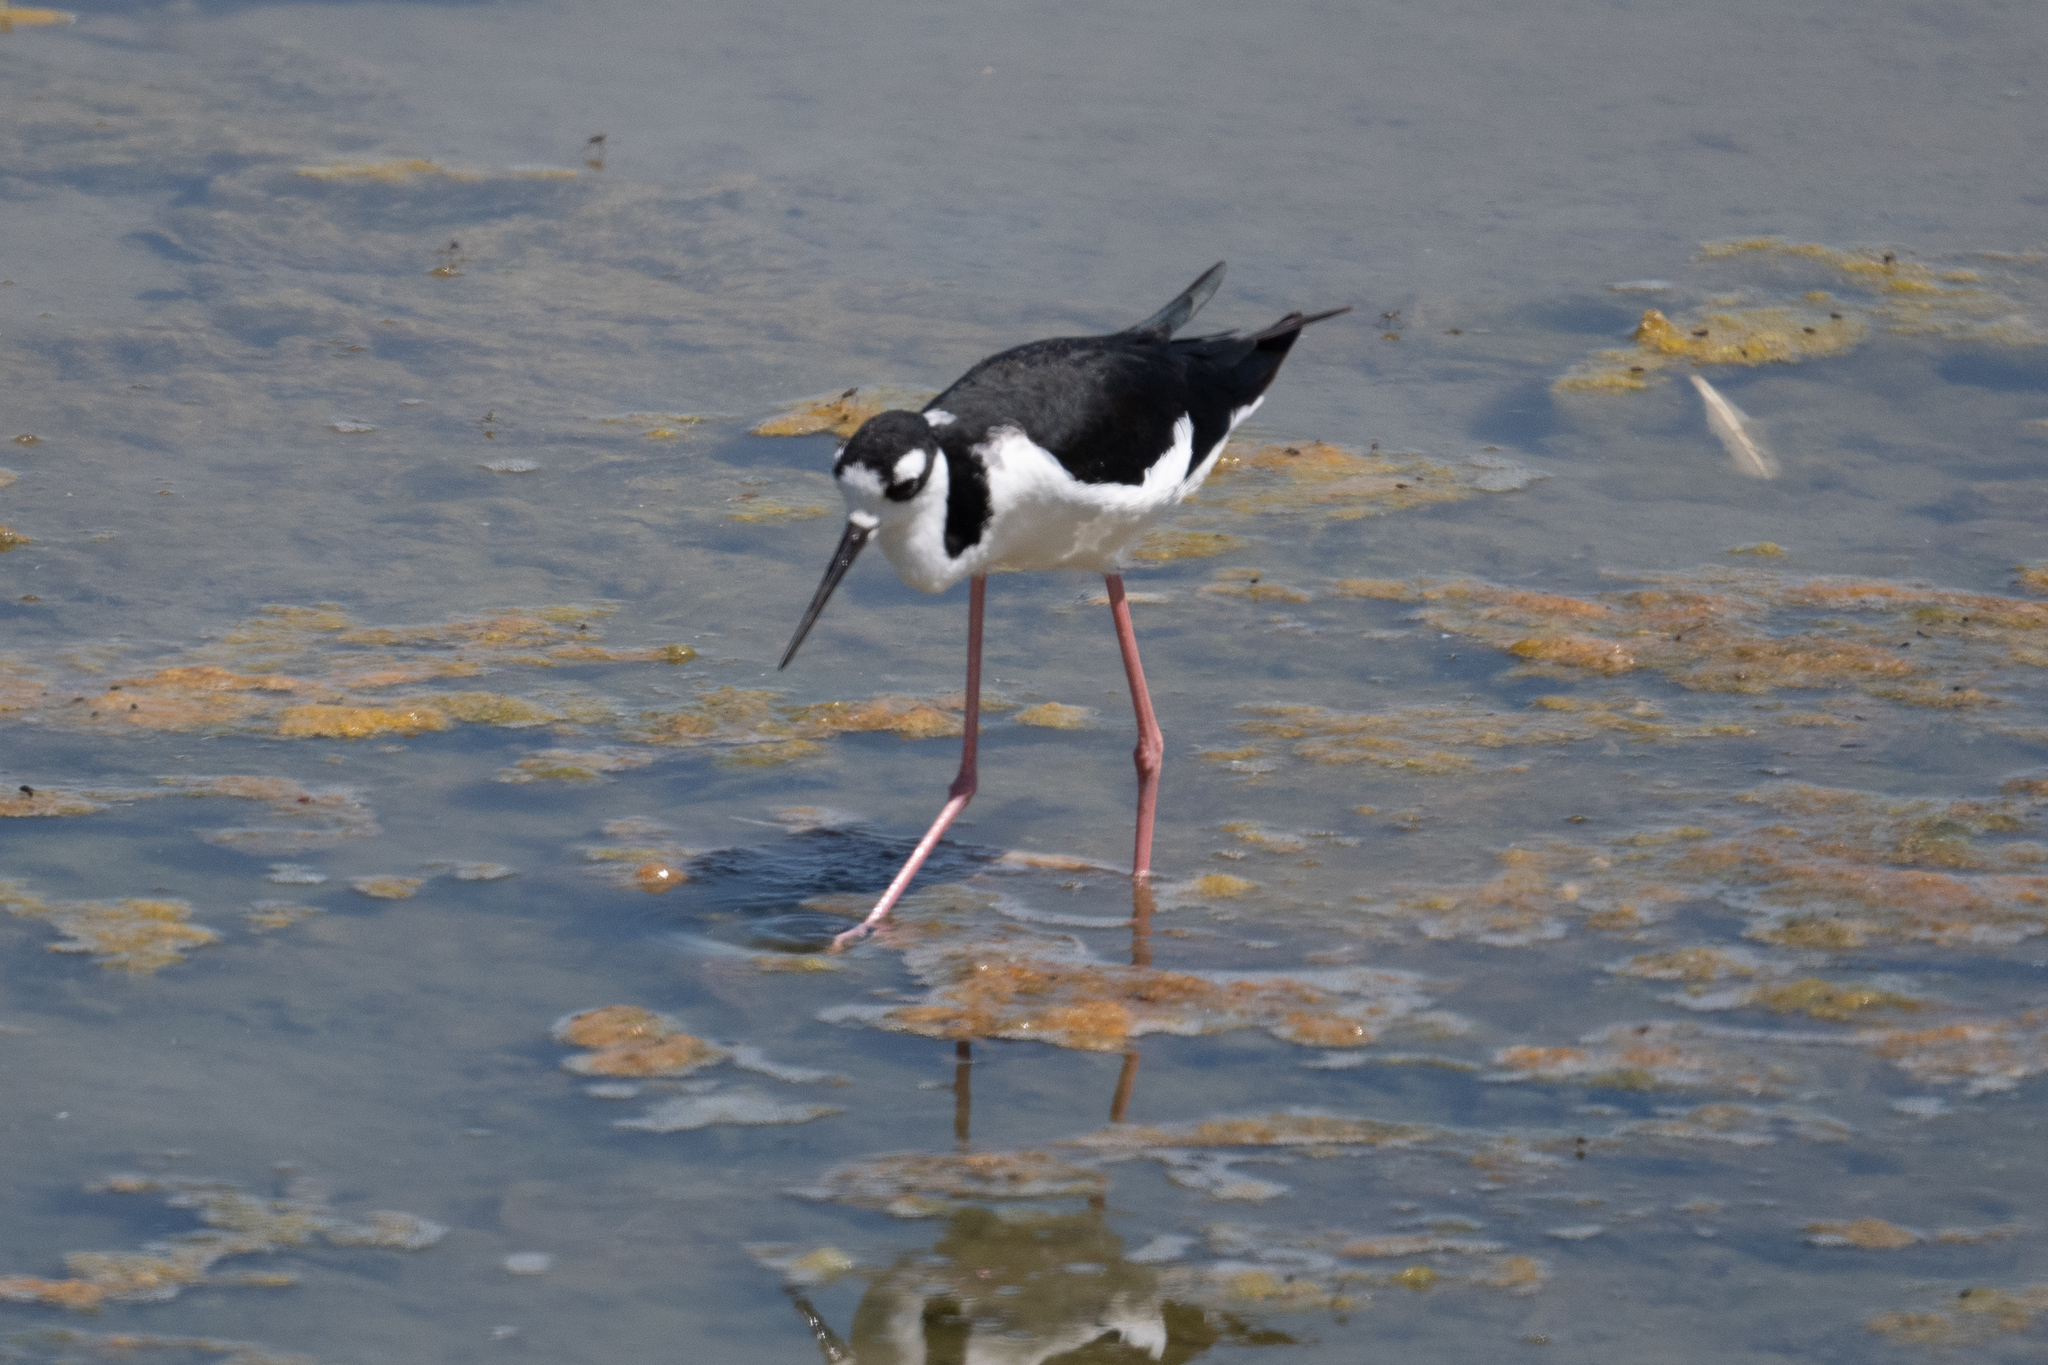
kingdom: Animalia
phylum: Chordata
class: Aves
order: Charadriiformes
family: Recurvirostridae
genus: Himantopus
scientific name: Himantopus mexicanus
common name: Black-necked stilt
